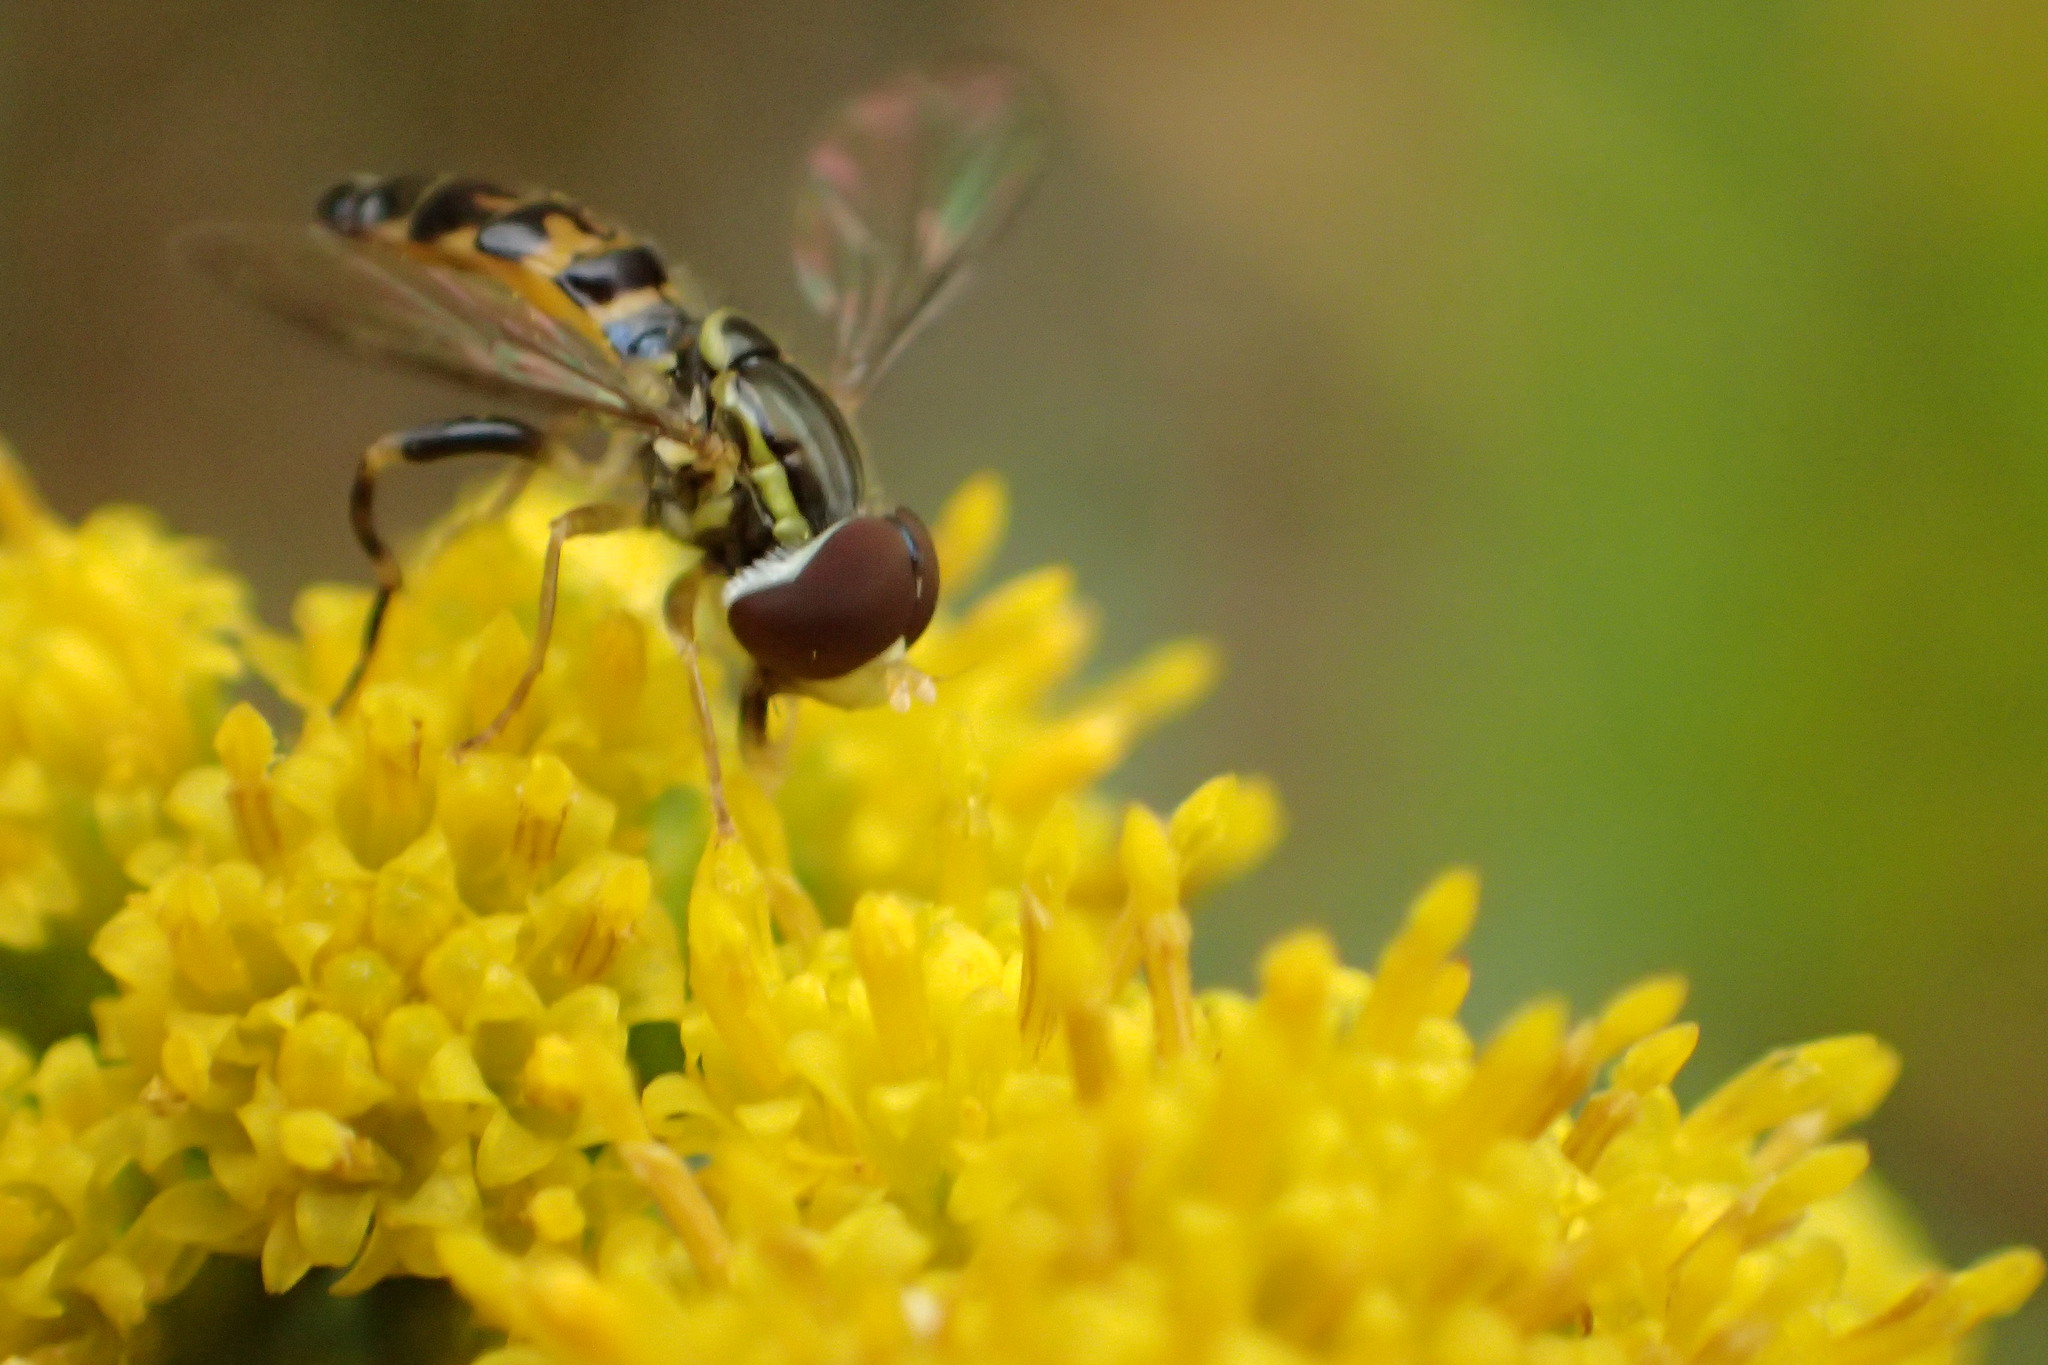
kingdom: Animalia
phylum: Arthropoda
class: Insecta
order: Diptera
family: Syrphidae
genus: Toxomerus
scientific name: Toxomerus geminatus
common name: Eastern calligrapher
